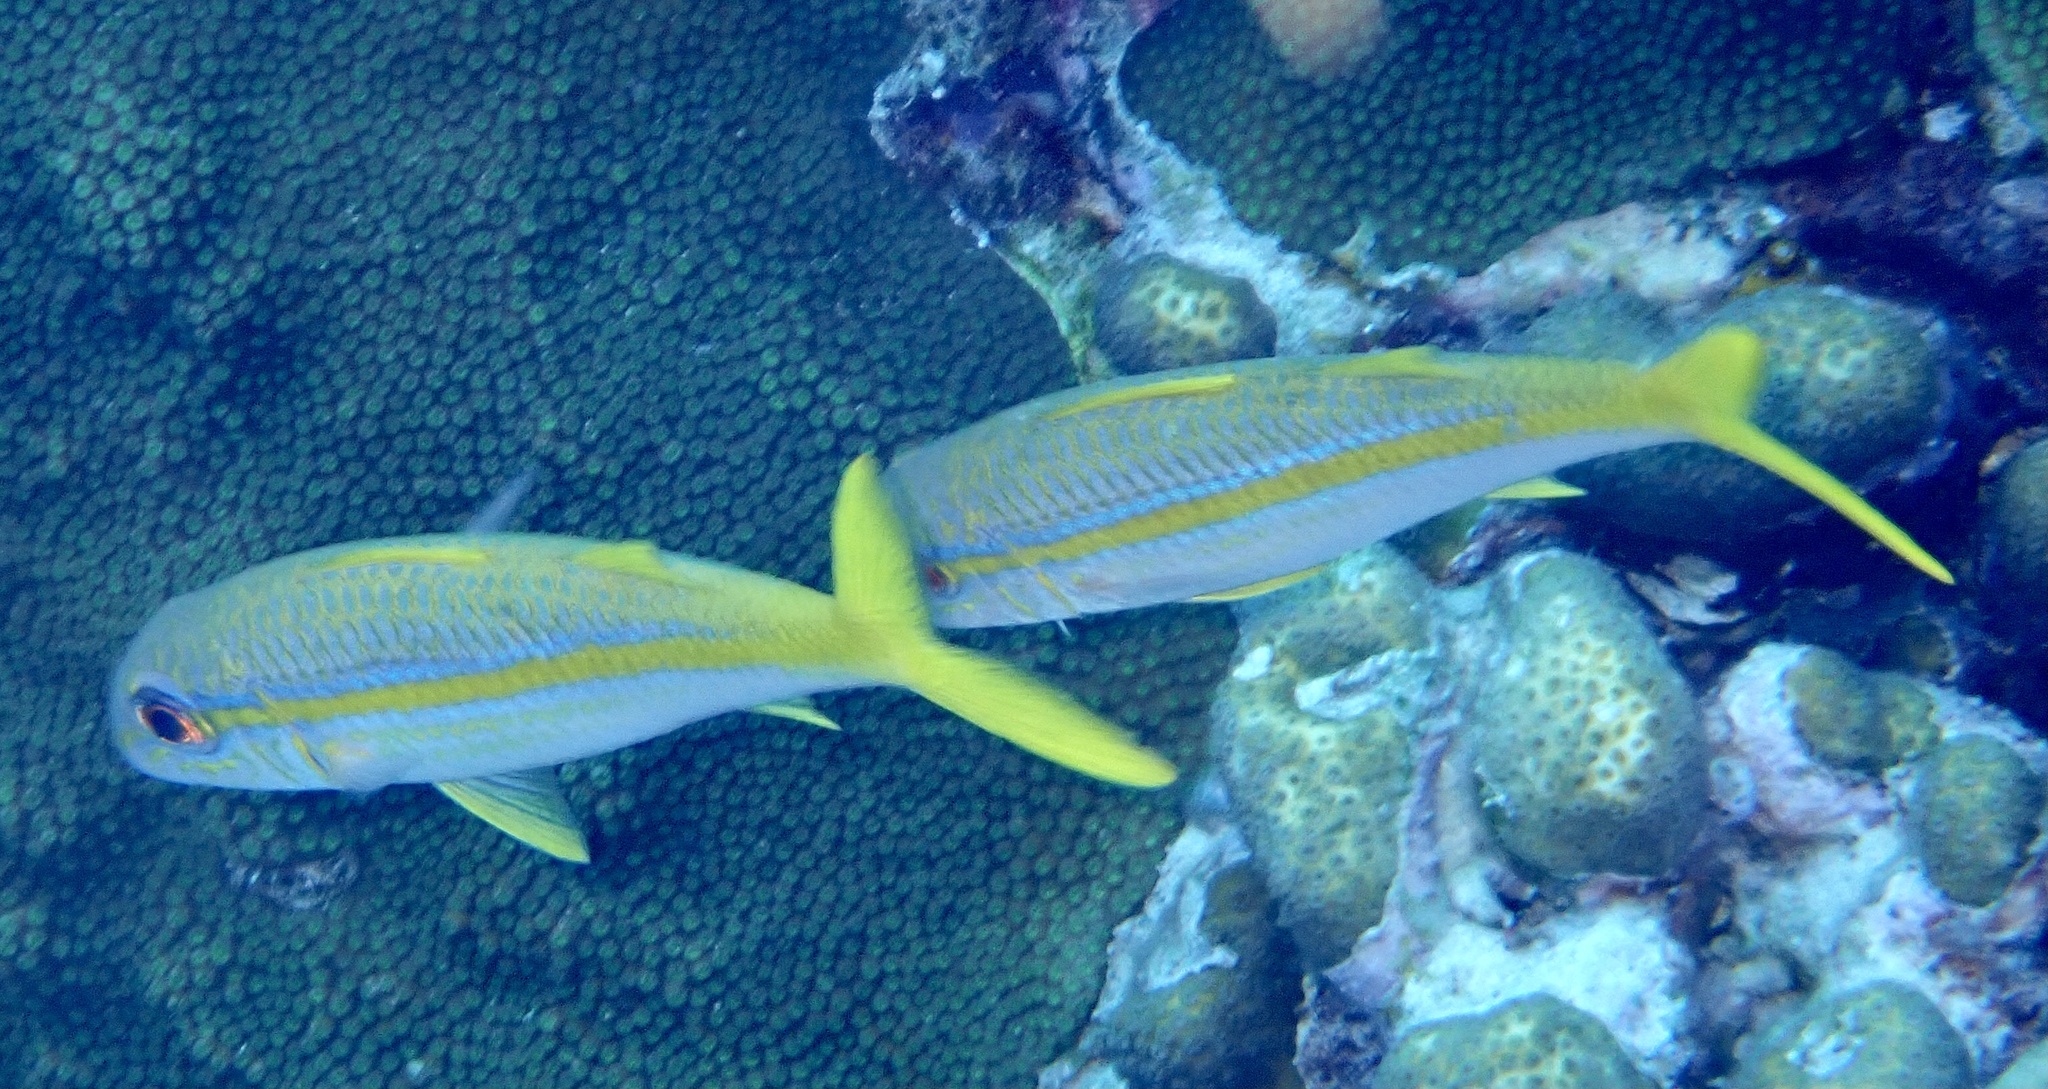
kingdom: Animalia
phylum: Chordata
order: Perciformes
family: Mullidae
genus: Mulloidichthys
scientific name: Mulloidichthys martinicus
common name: Yellow goatfish
